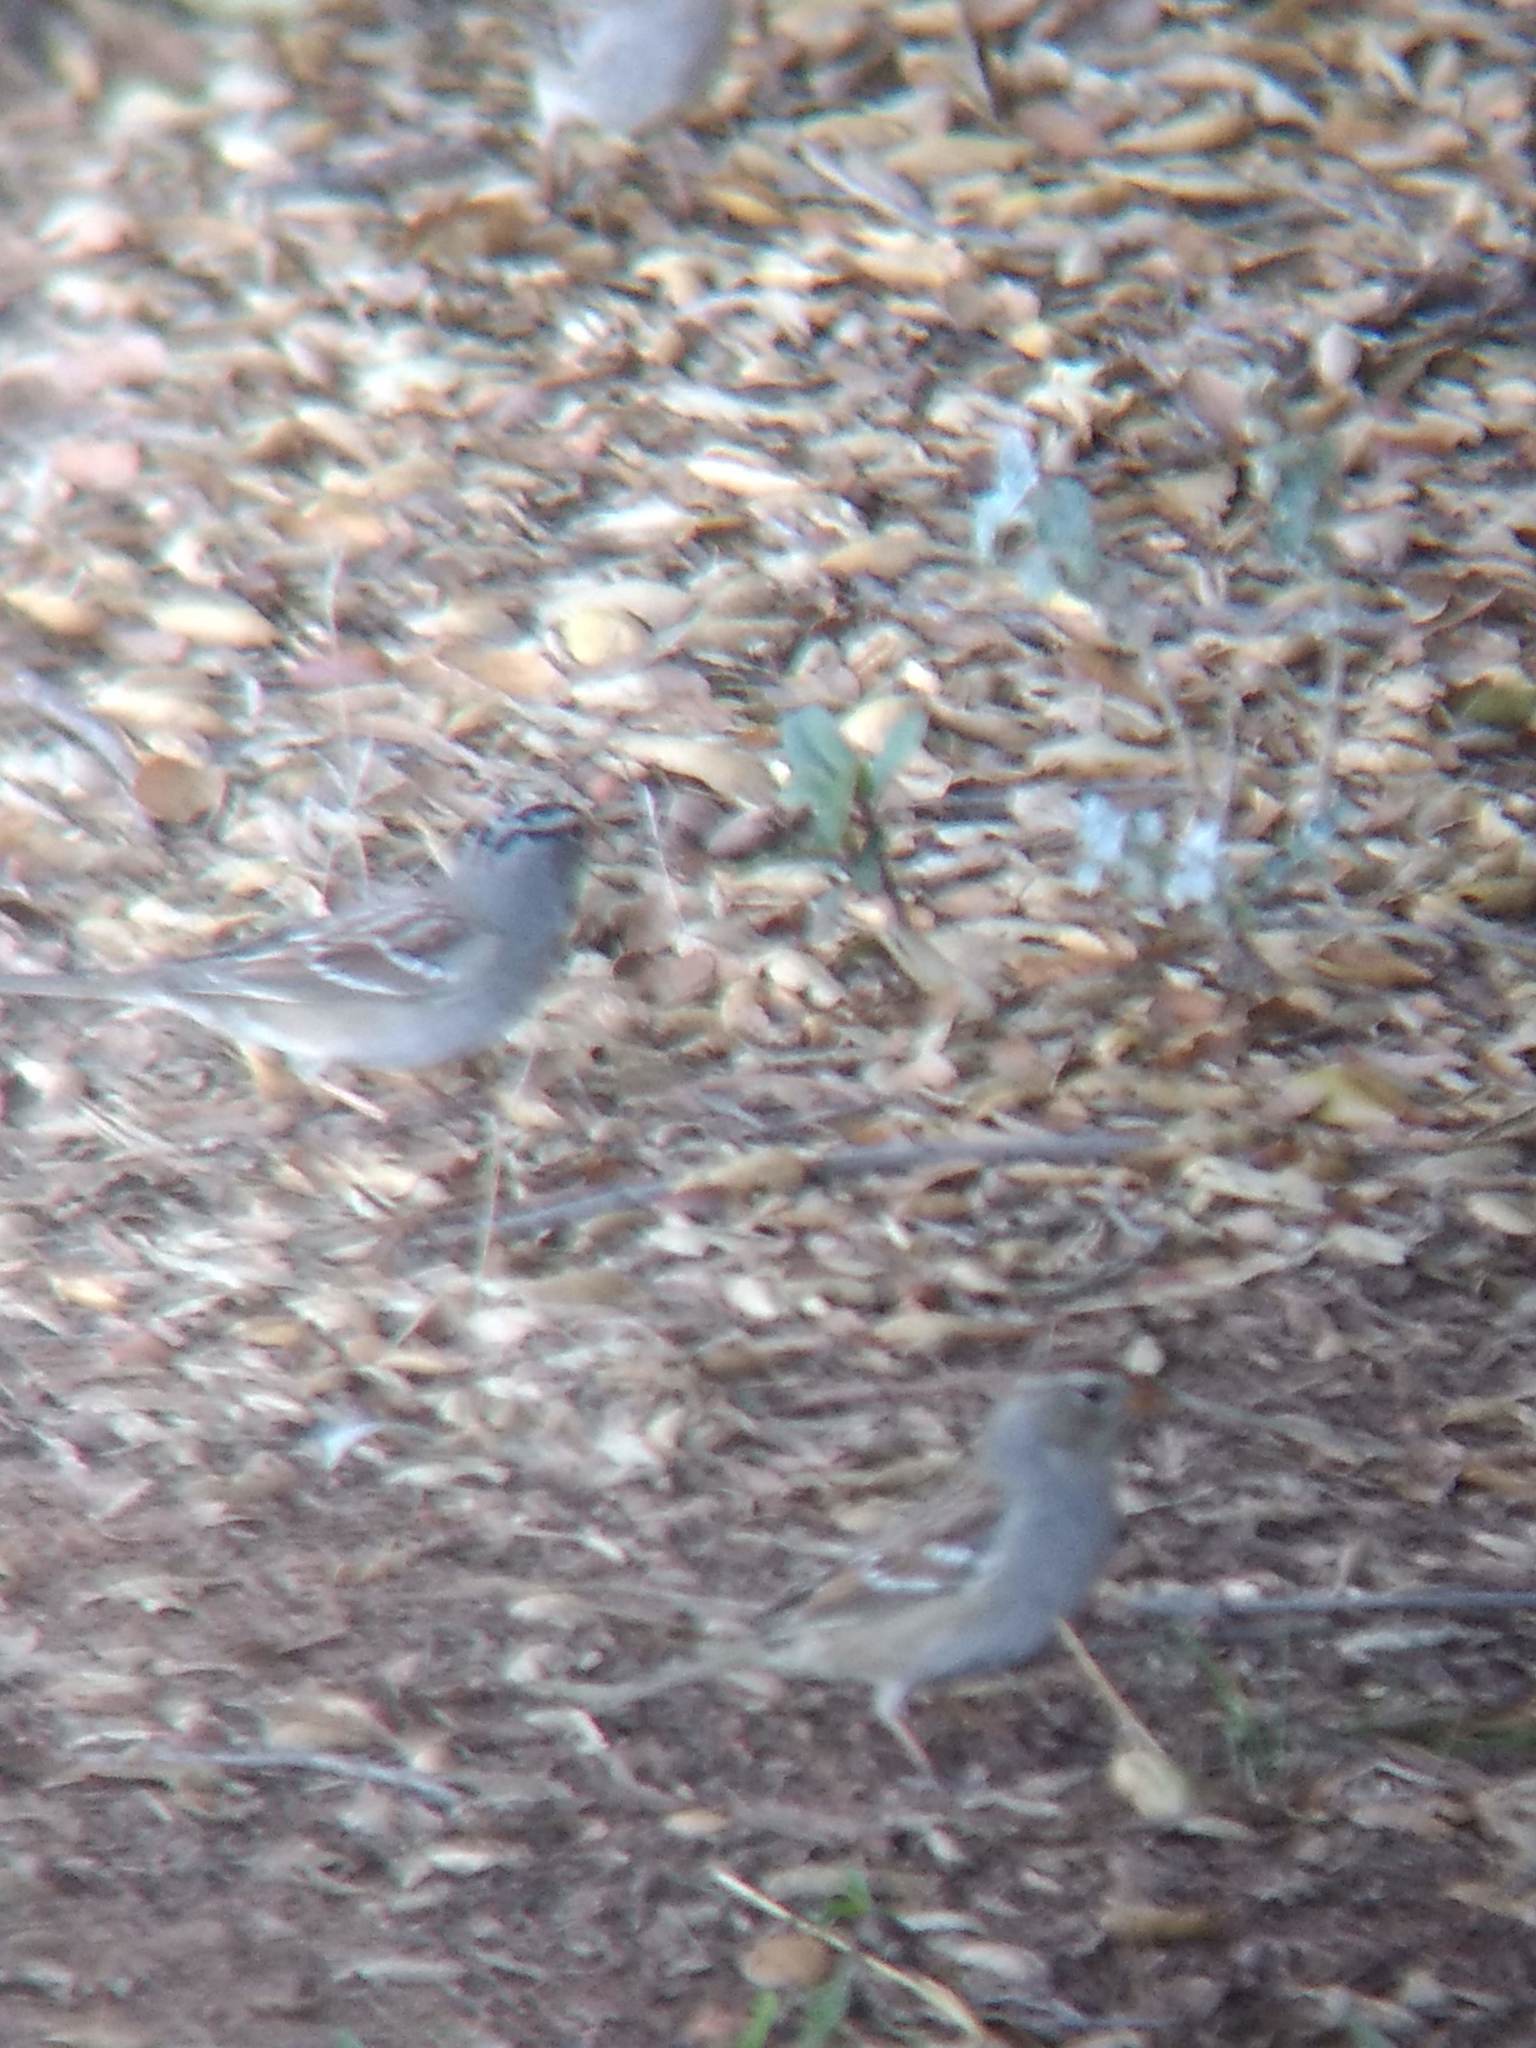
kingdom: Animalia
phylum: Chordata
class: Aves
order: Passeriformes
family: Passerellidae
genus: Zonotrichia
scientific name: Zonotrichia leucophrys
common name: White-crowned sparrow
